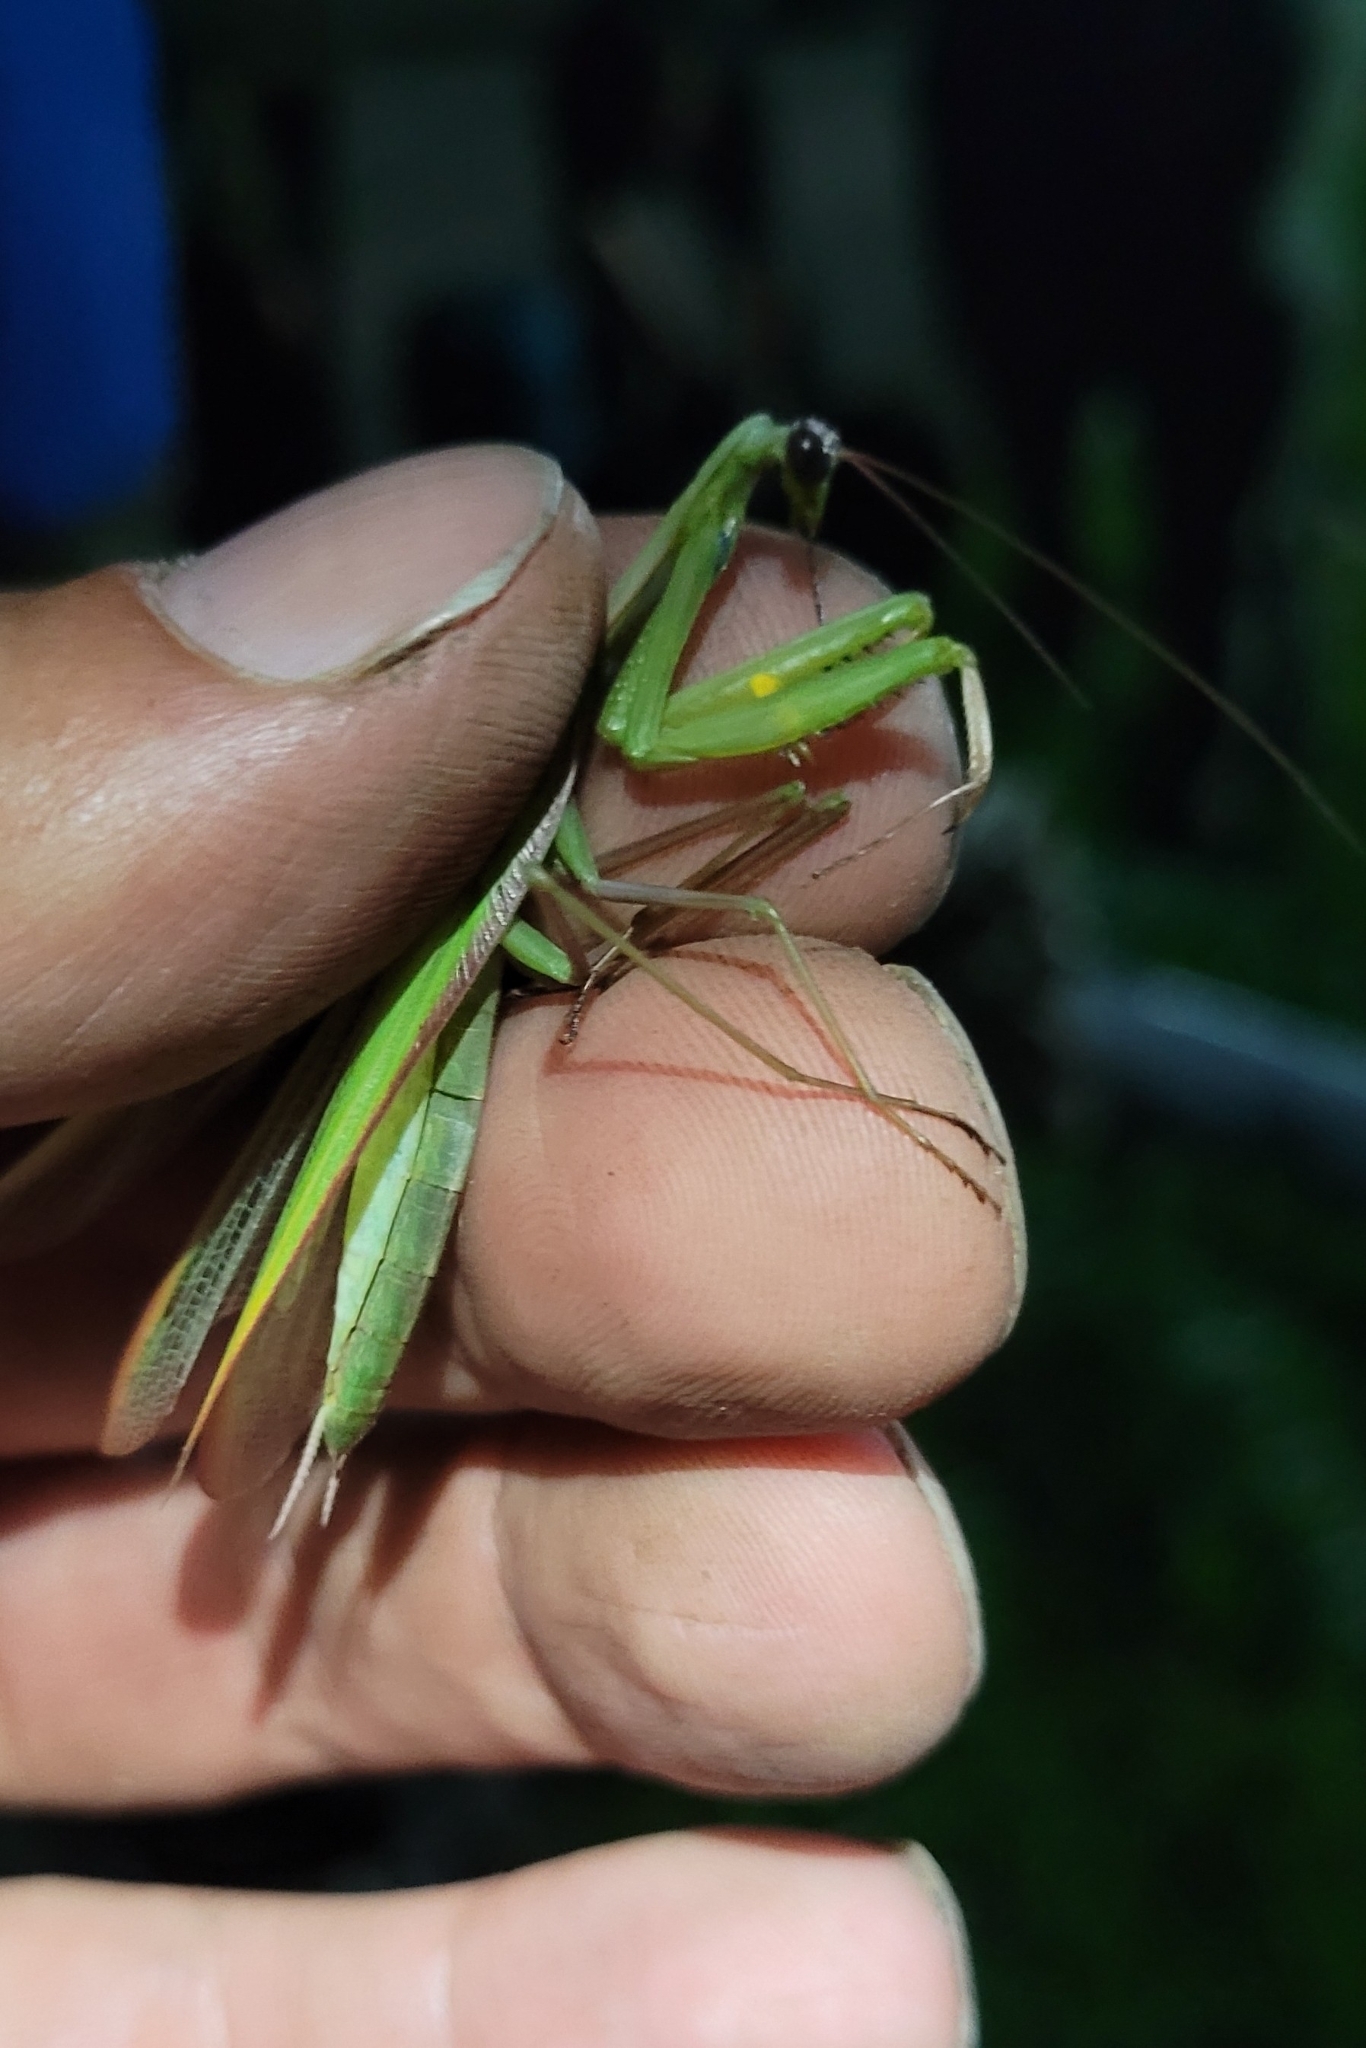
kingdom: Animalia
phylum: Arthropoda
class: Insecta
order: Mantodea
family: Mantidae
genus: Mantis
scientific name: Mantis religiosa
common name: Praying mantis
